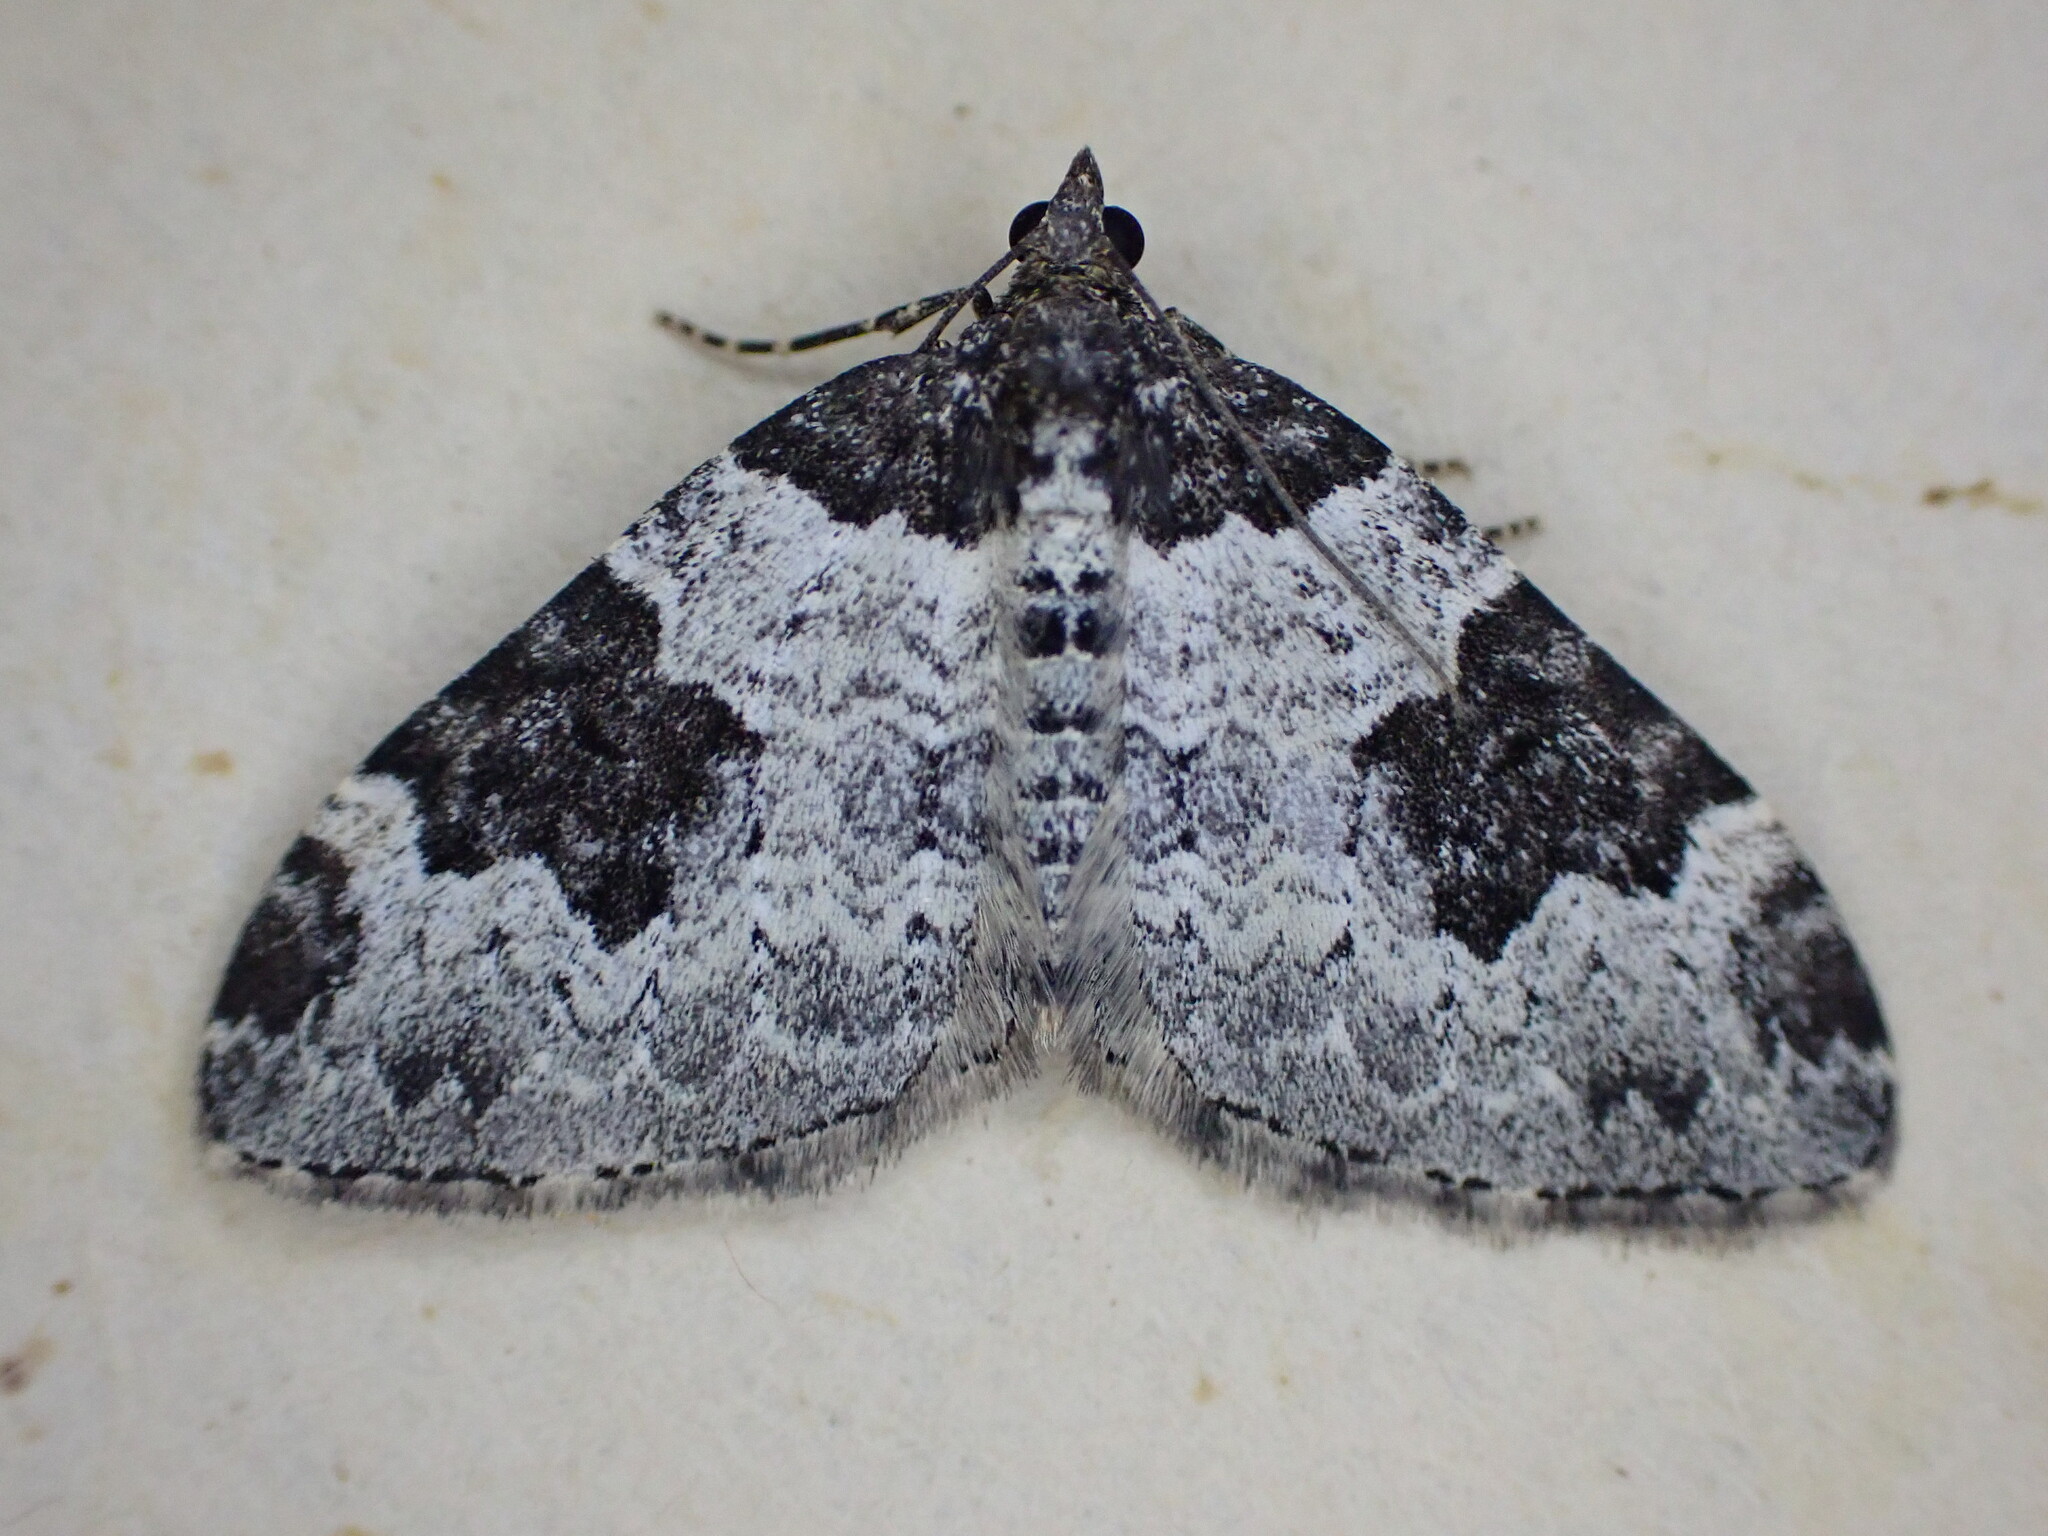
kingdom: Animalia
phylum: Arthropoda
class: Insecta
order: Lepidoptera
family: Geometridae
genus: Xanthorhoe
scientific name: Xanthorhoe fluctuata
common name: Garden carpet
